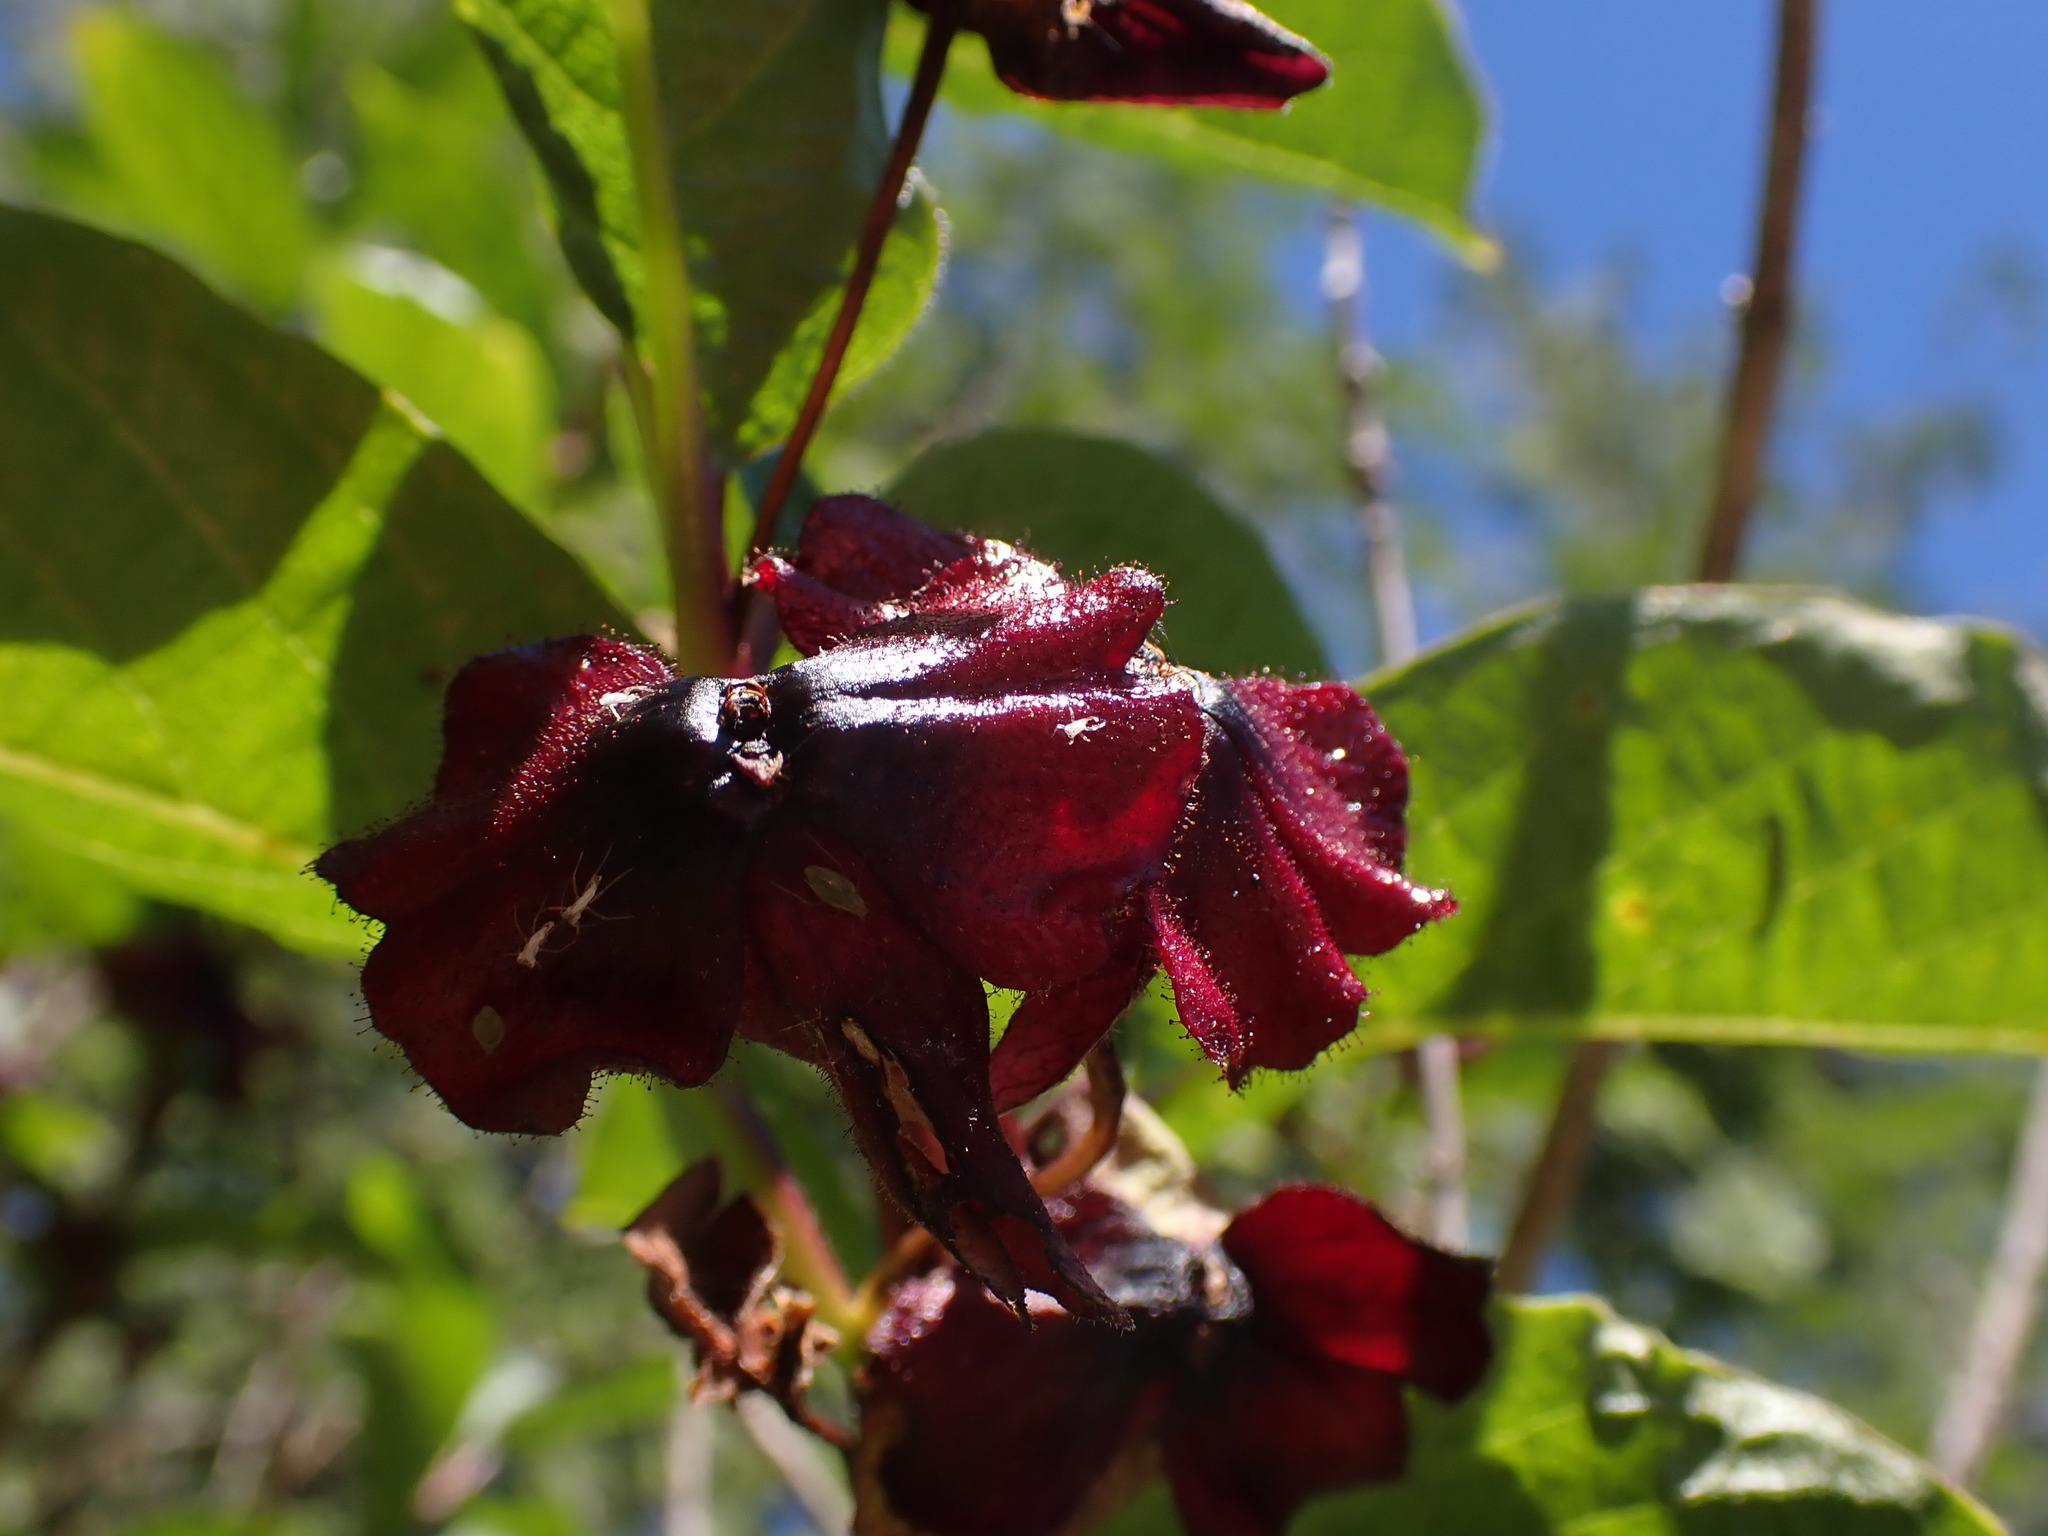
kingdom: Plantae
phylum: Tracheophyta
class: Magnoliopsida
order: Dipsacales
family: Caprifoliaceae
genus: Lonicera
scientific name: Lonicera involucrata
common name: Californian honeysuckle
